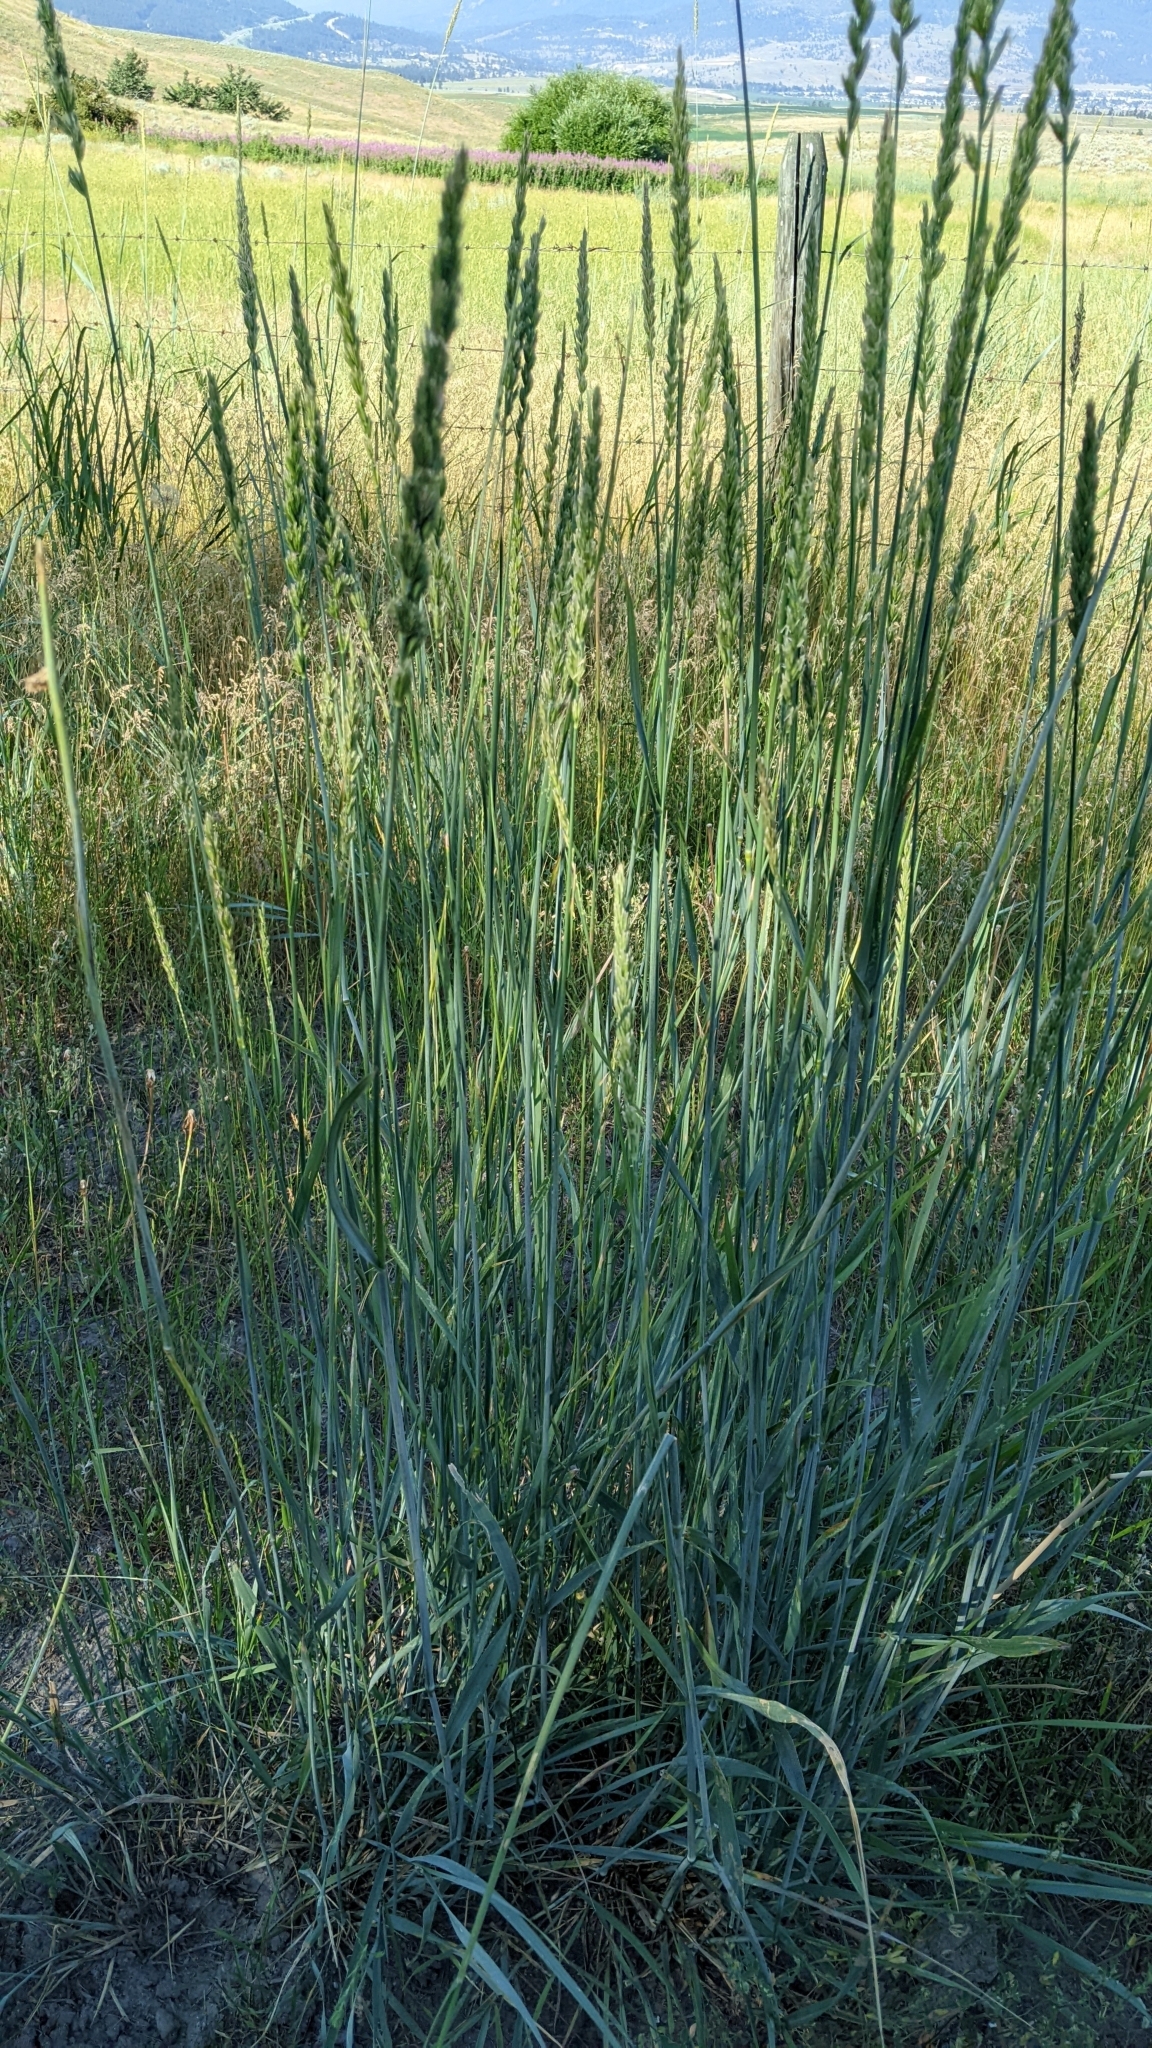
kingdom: Plantae
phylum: Tracheophyta
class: Liliopsida
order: Poales
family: Poaceae
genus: Leymus
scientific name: Leymus cinereus
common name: Basin wild rye
